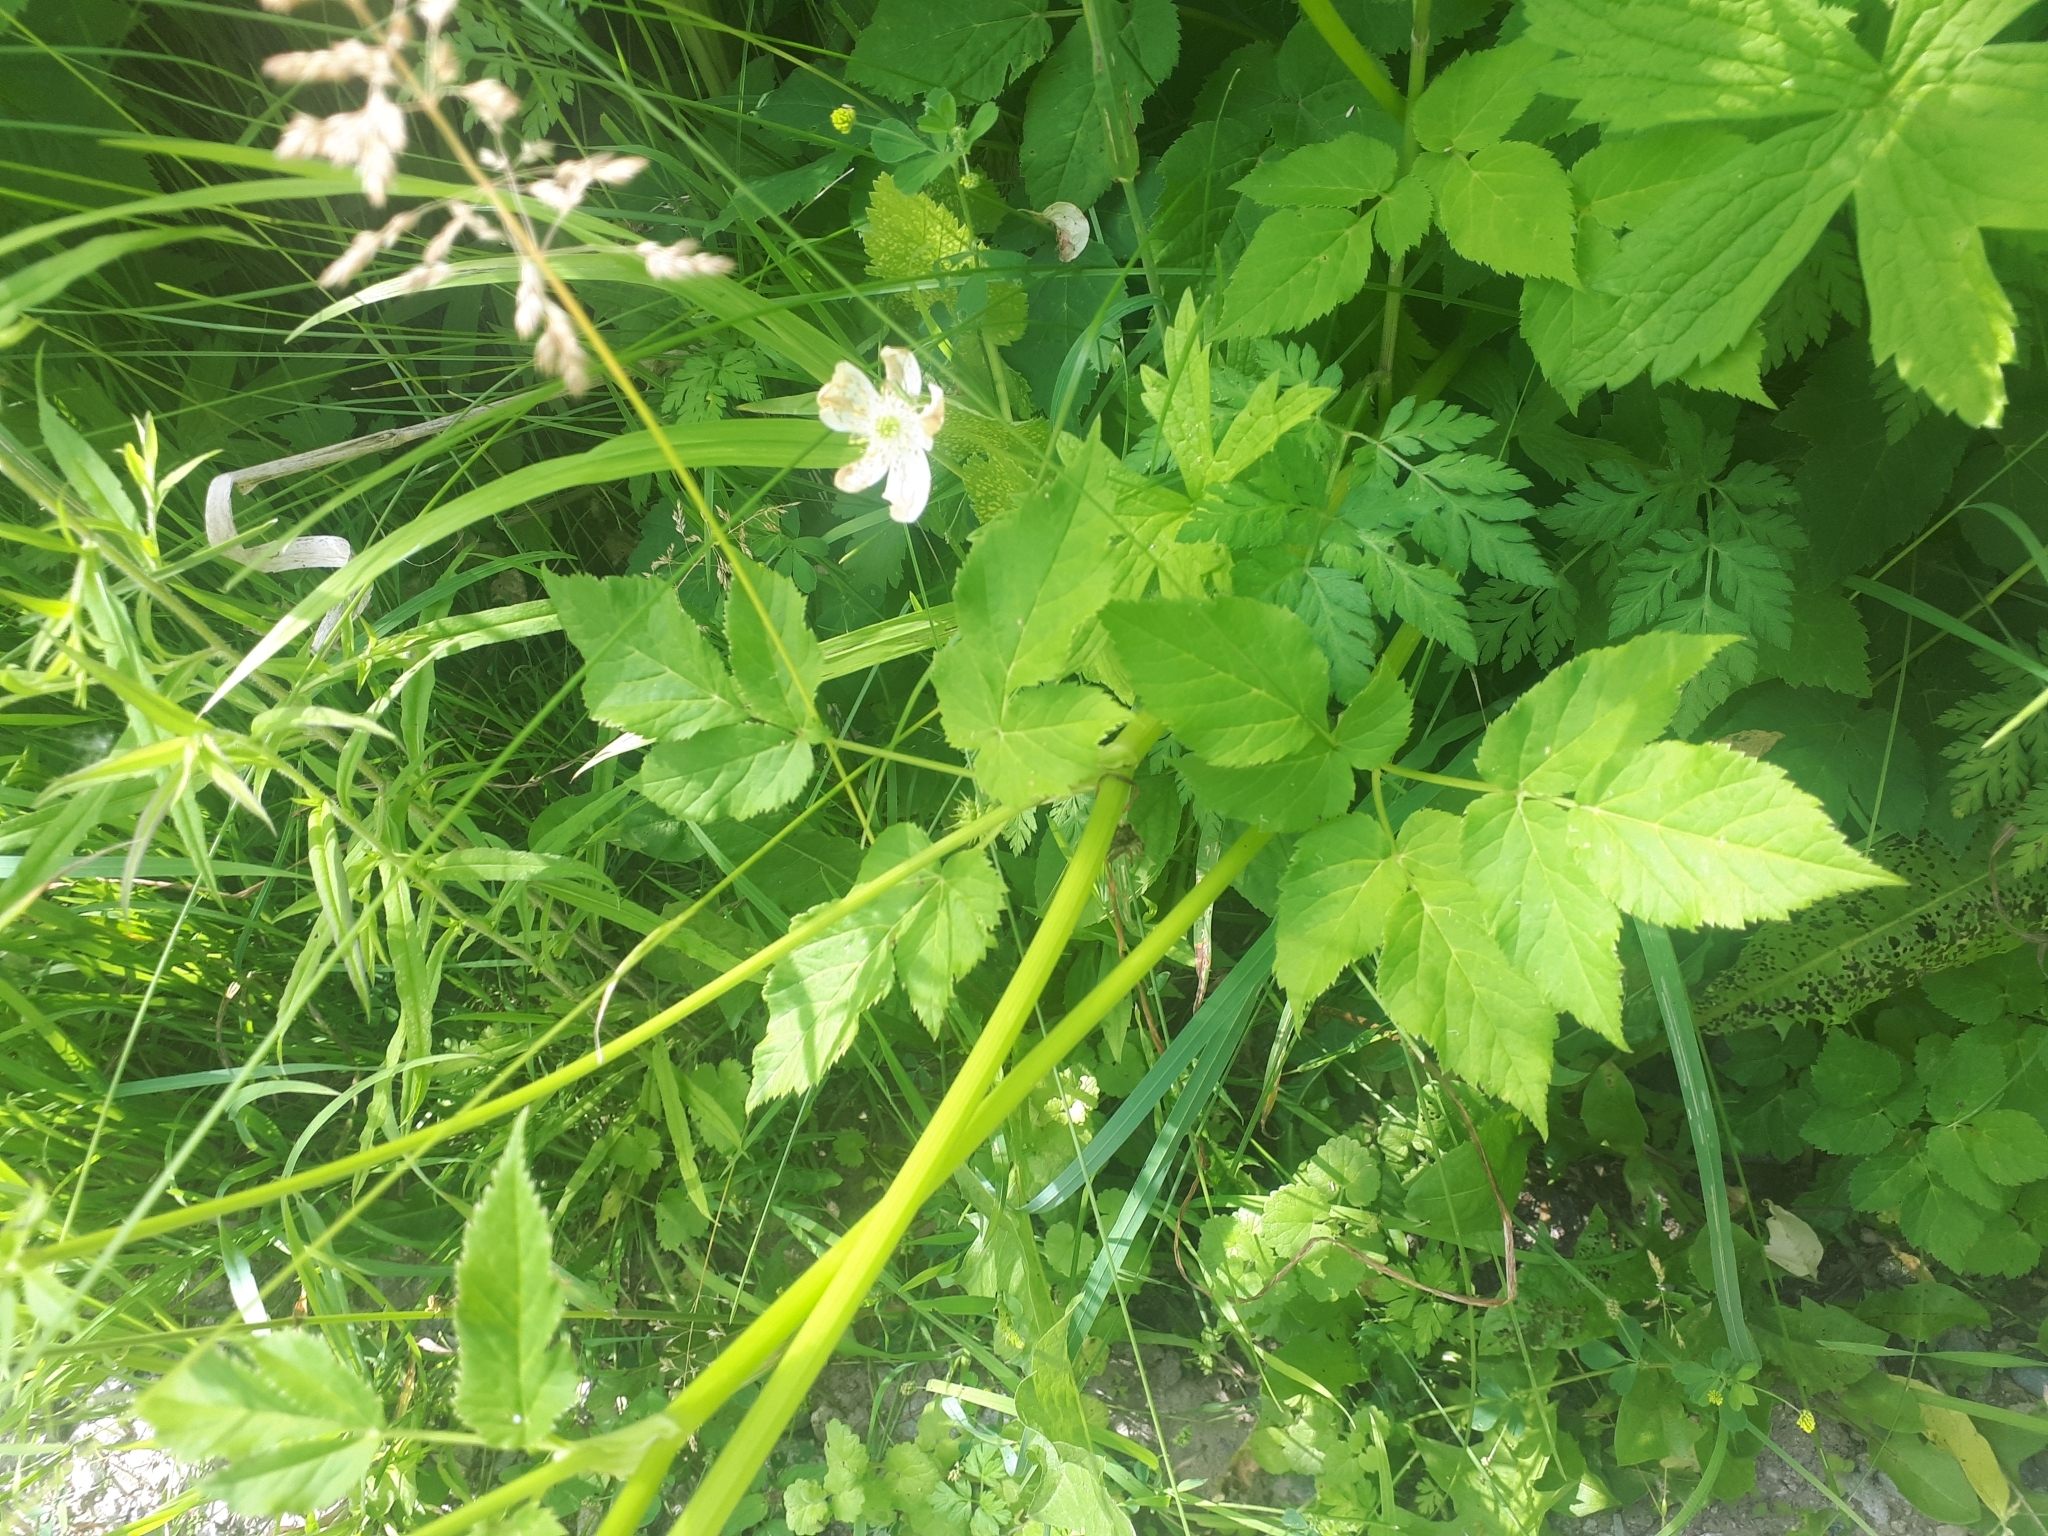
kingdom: Plantae
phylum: Tracheophyta
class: Magnoliopsida
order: Apiales
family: Apiaceae
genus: Aegopodium
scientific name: Aegopodium podagraria
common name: Ground-elder
